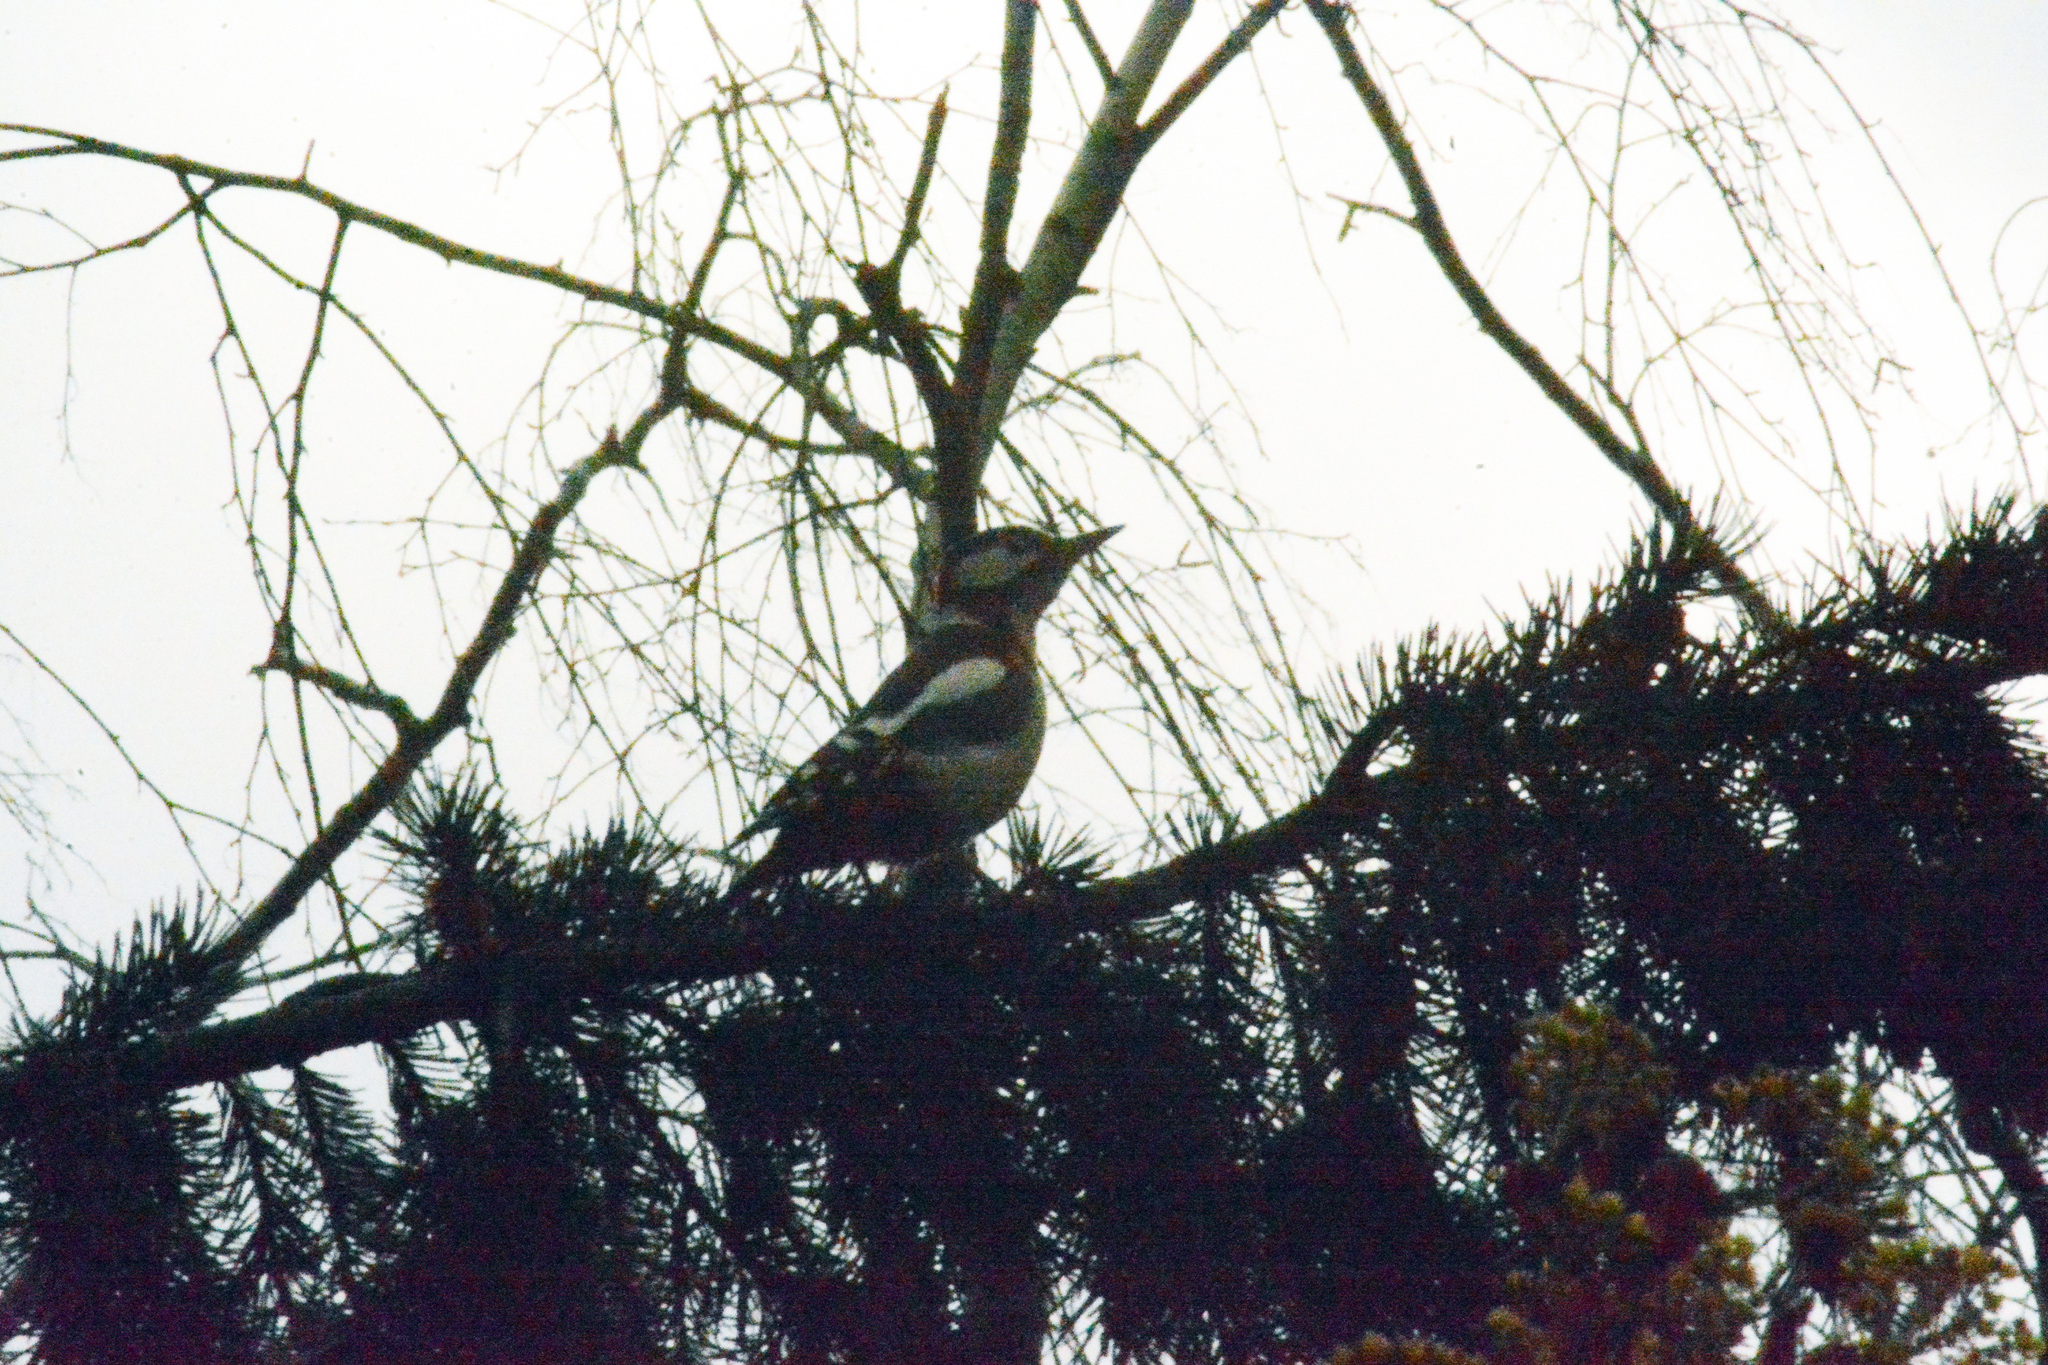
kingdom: Animalia
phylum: Chordata
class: Aves
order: Piciformes
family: Picidae
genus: Dendrocopos
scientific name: Dendrocopos major
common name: Great spotted woodpecker
